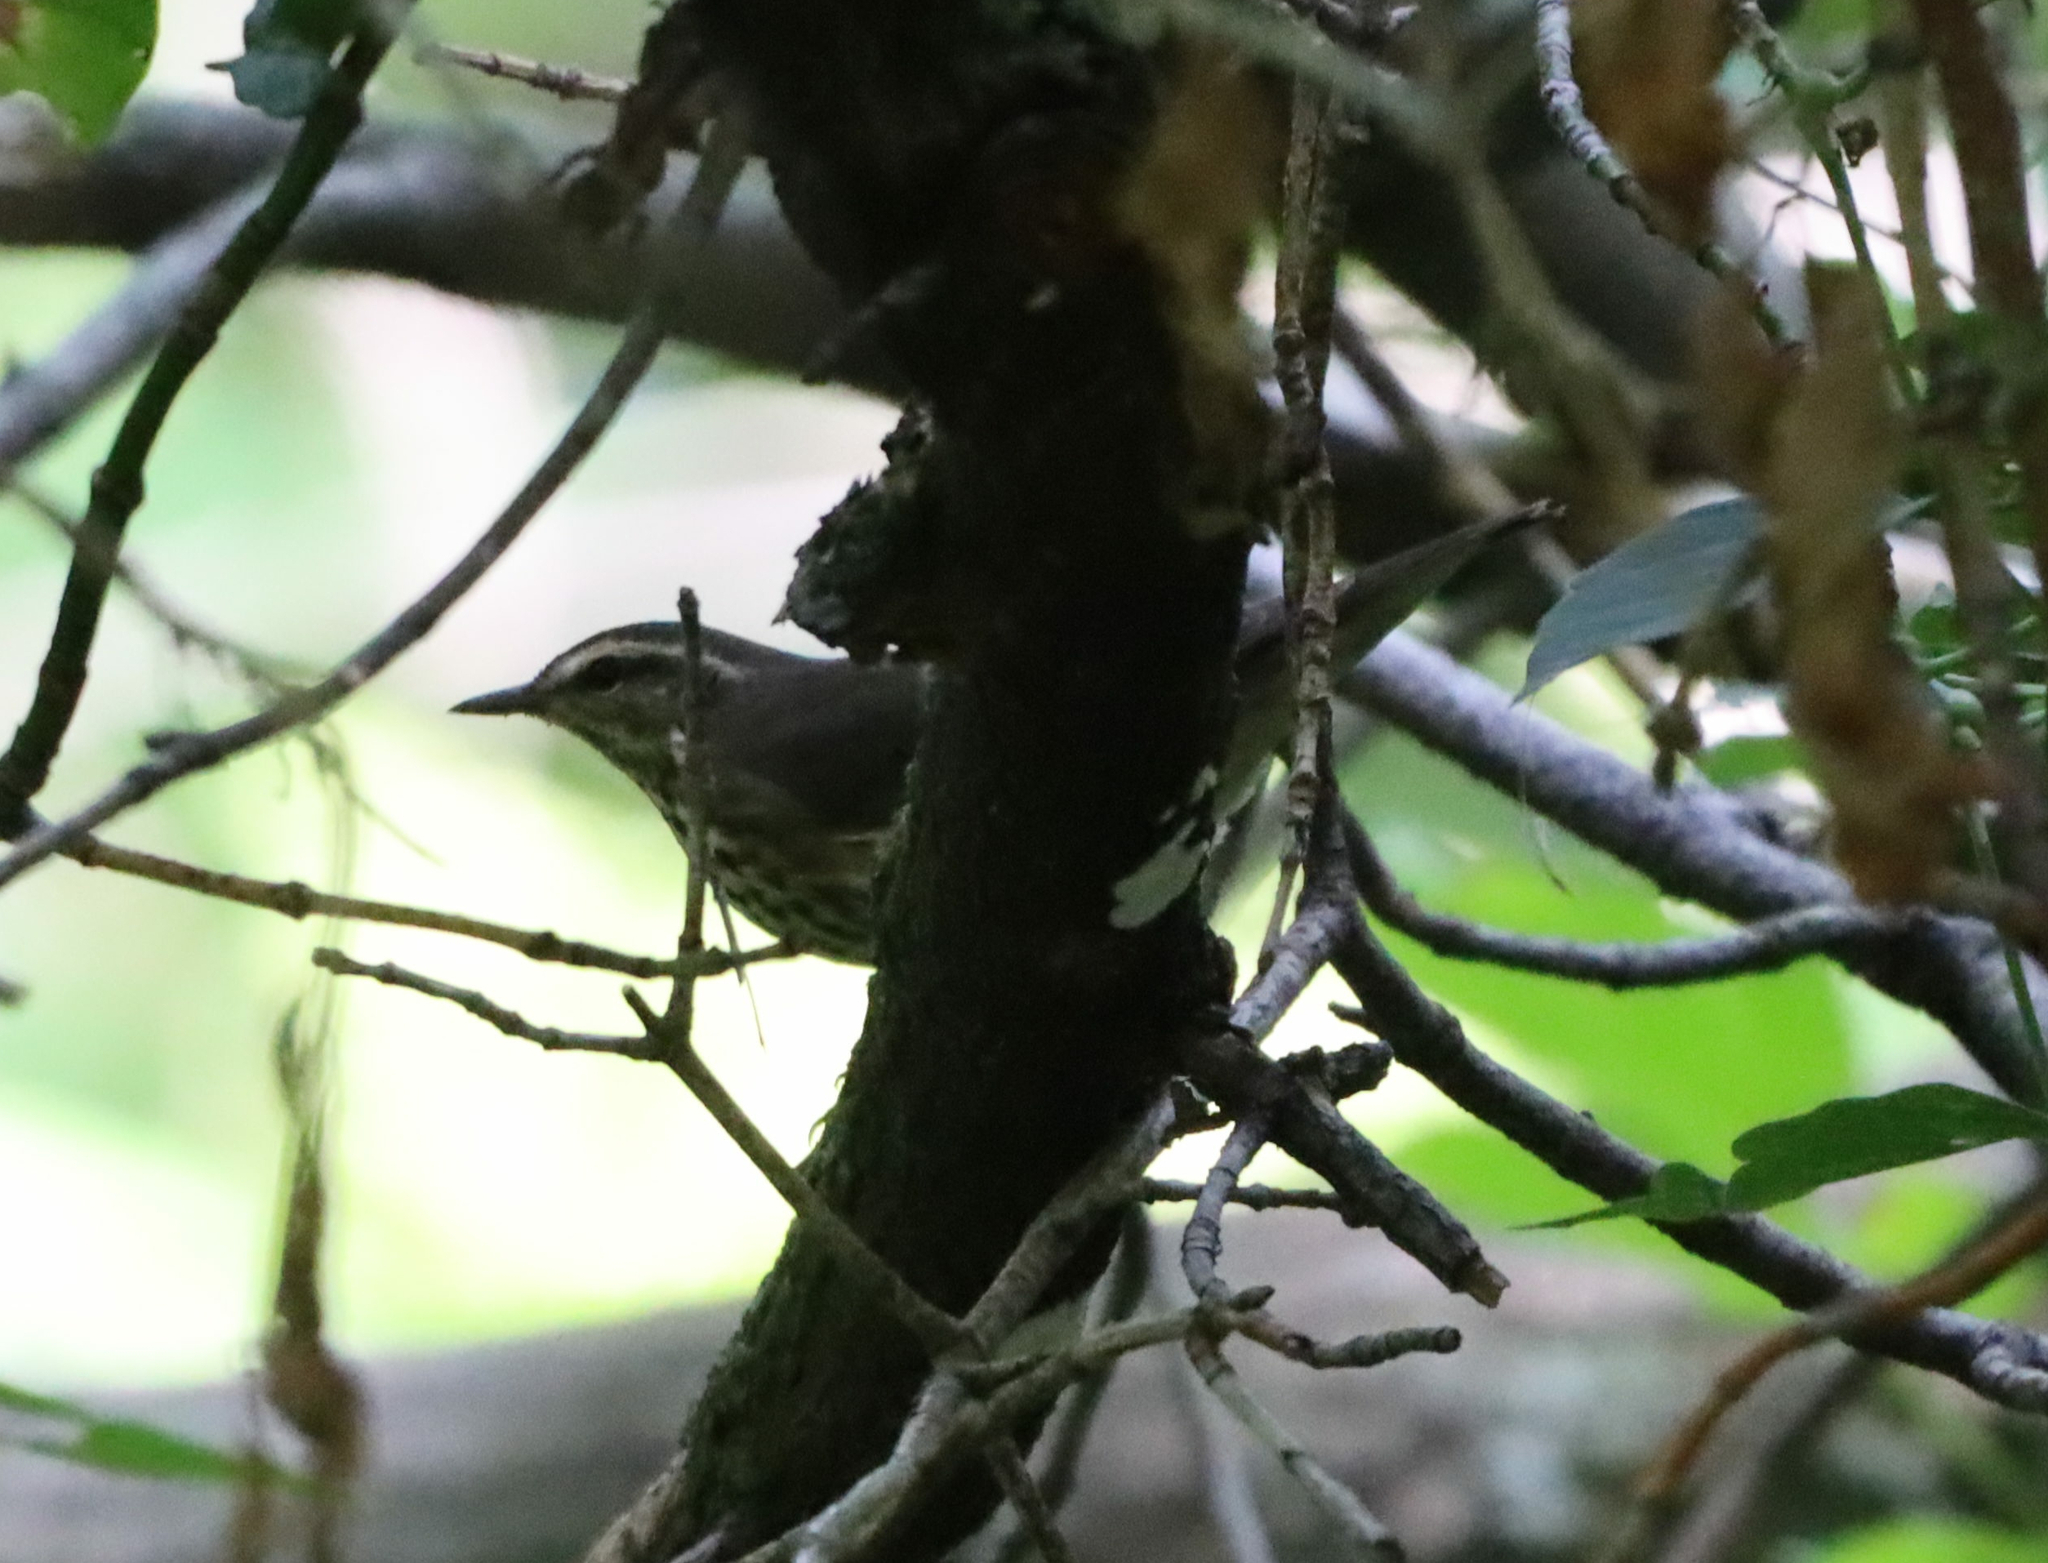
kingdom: Animalia
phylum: Chordata
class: Aves
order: Passeriformes
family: Parulidae
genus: Parkesia
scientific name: Parkesia noveboracensis
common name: Northern waterthrush
